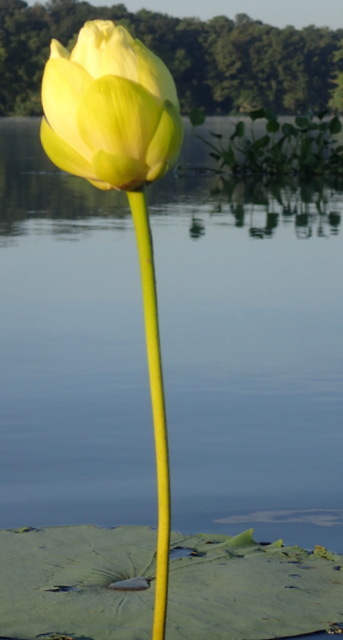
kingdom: Plantae
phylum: Tracheophyta
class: Magnoliopsida
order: Proteales
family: Nelumbonaceae
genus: Nelumbo
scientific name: Nelumbo lutea
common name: American lotus
